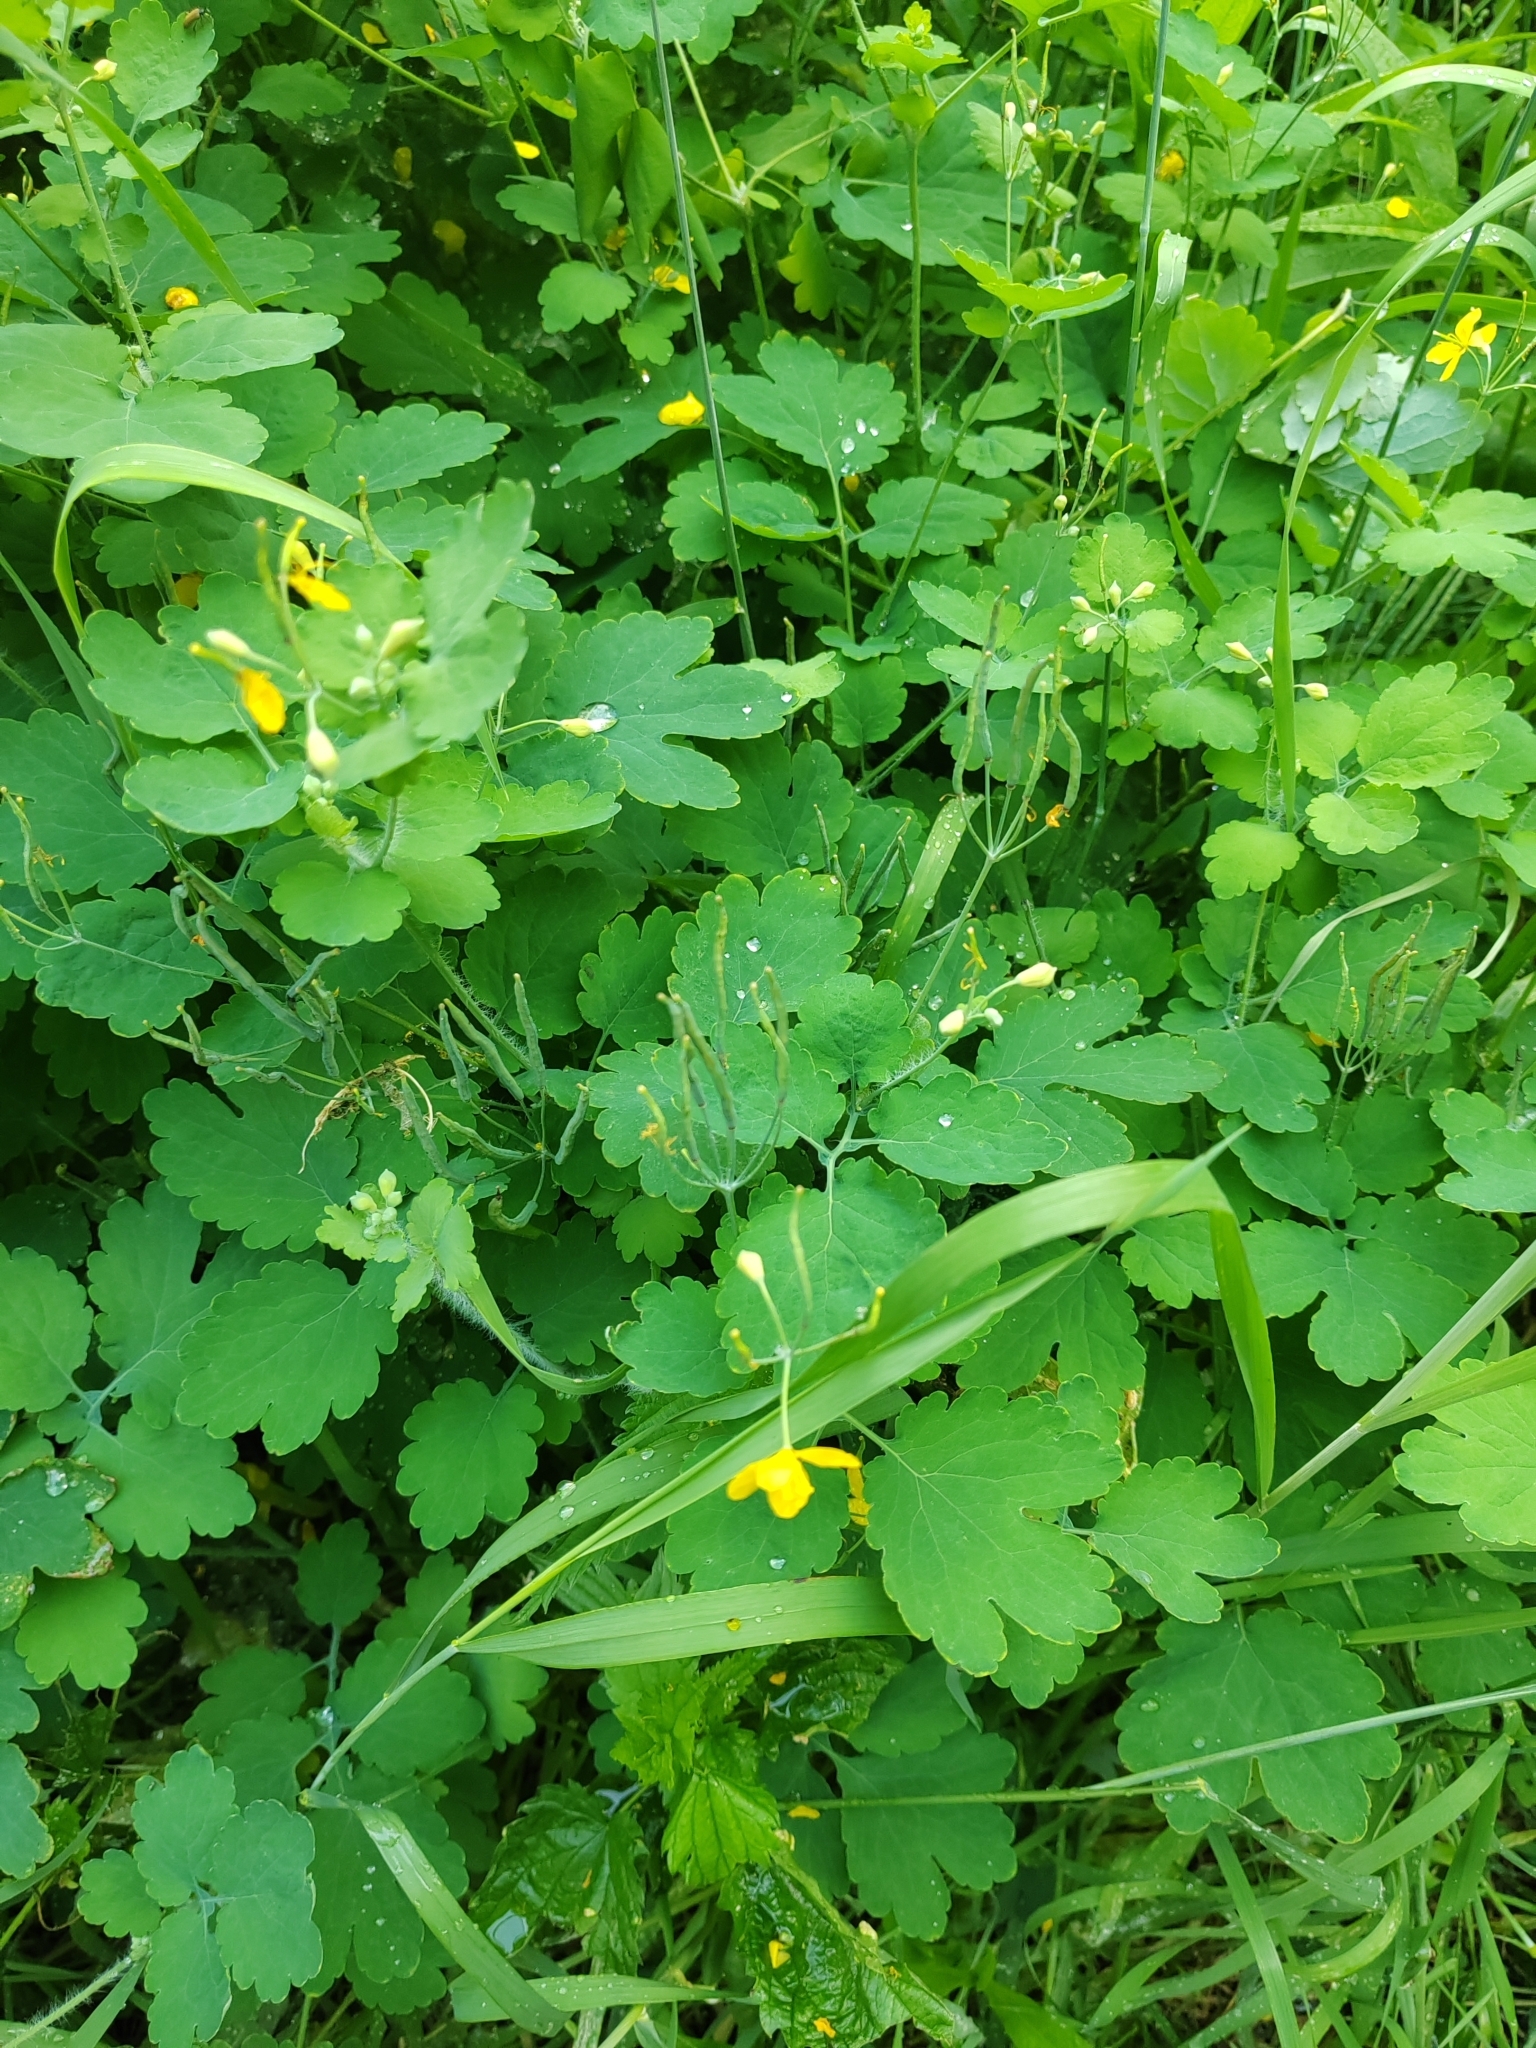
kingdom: Plantae
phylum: Tracheophyta
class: Magnoliopsida
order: Ranunculales
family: Papaveraceae
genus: Chelidonium
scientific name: Chelidonium majus
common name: Greater celandine
